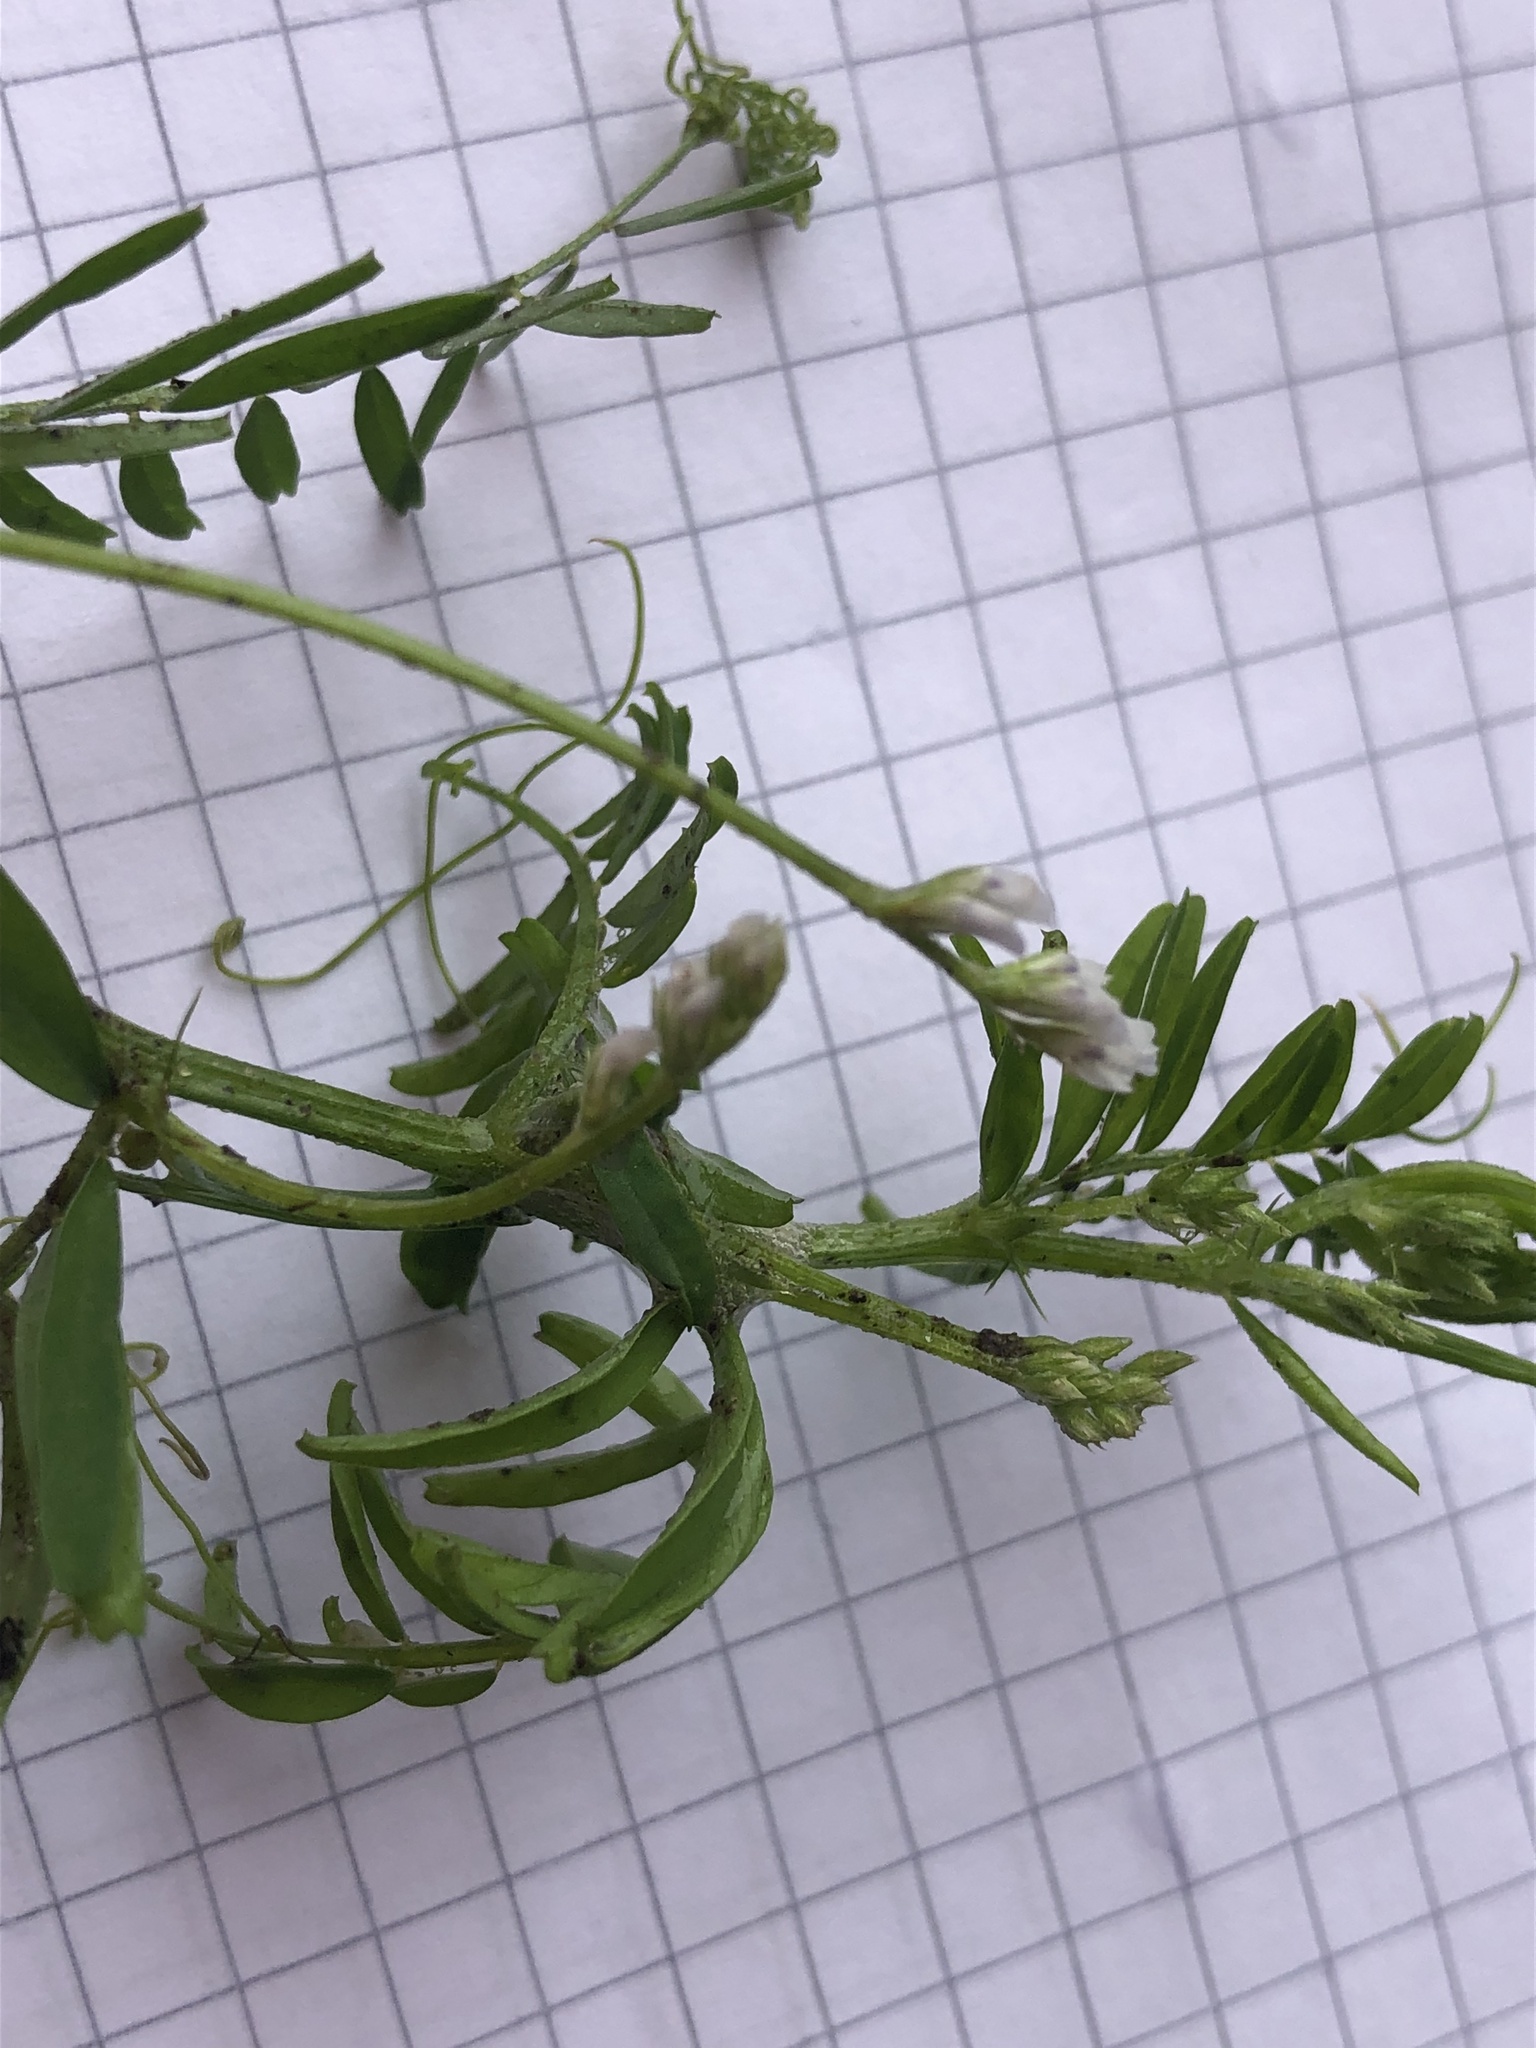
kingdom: Plantae
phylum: Tracheophyta
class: Magnoliopsida
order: Fabales
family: Fabaceae
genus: Vicia
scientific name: Vicia hirsuta
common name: Tiny vetch
